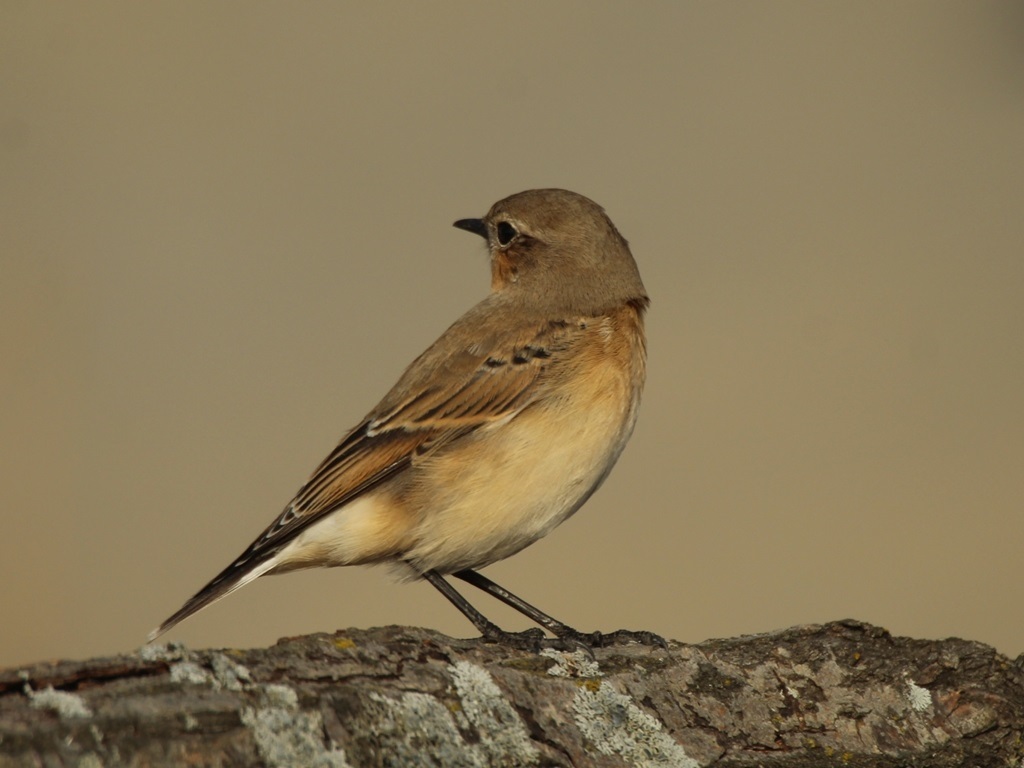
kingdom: Animalia
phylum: Chordata
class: Aves
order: Passeriformes
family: Muscicapidae
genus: Oenanthe
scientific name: Oenanthe oenanthe
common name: Northern wheatear
